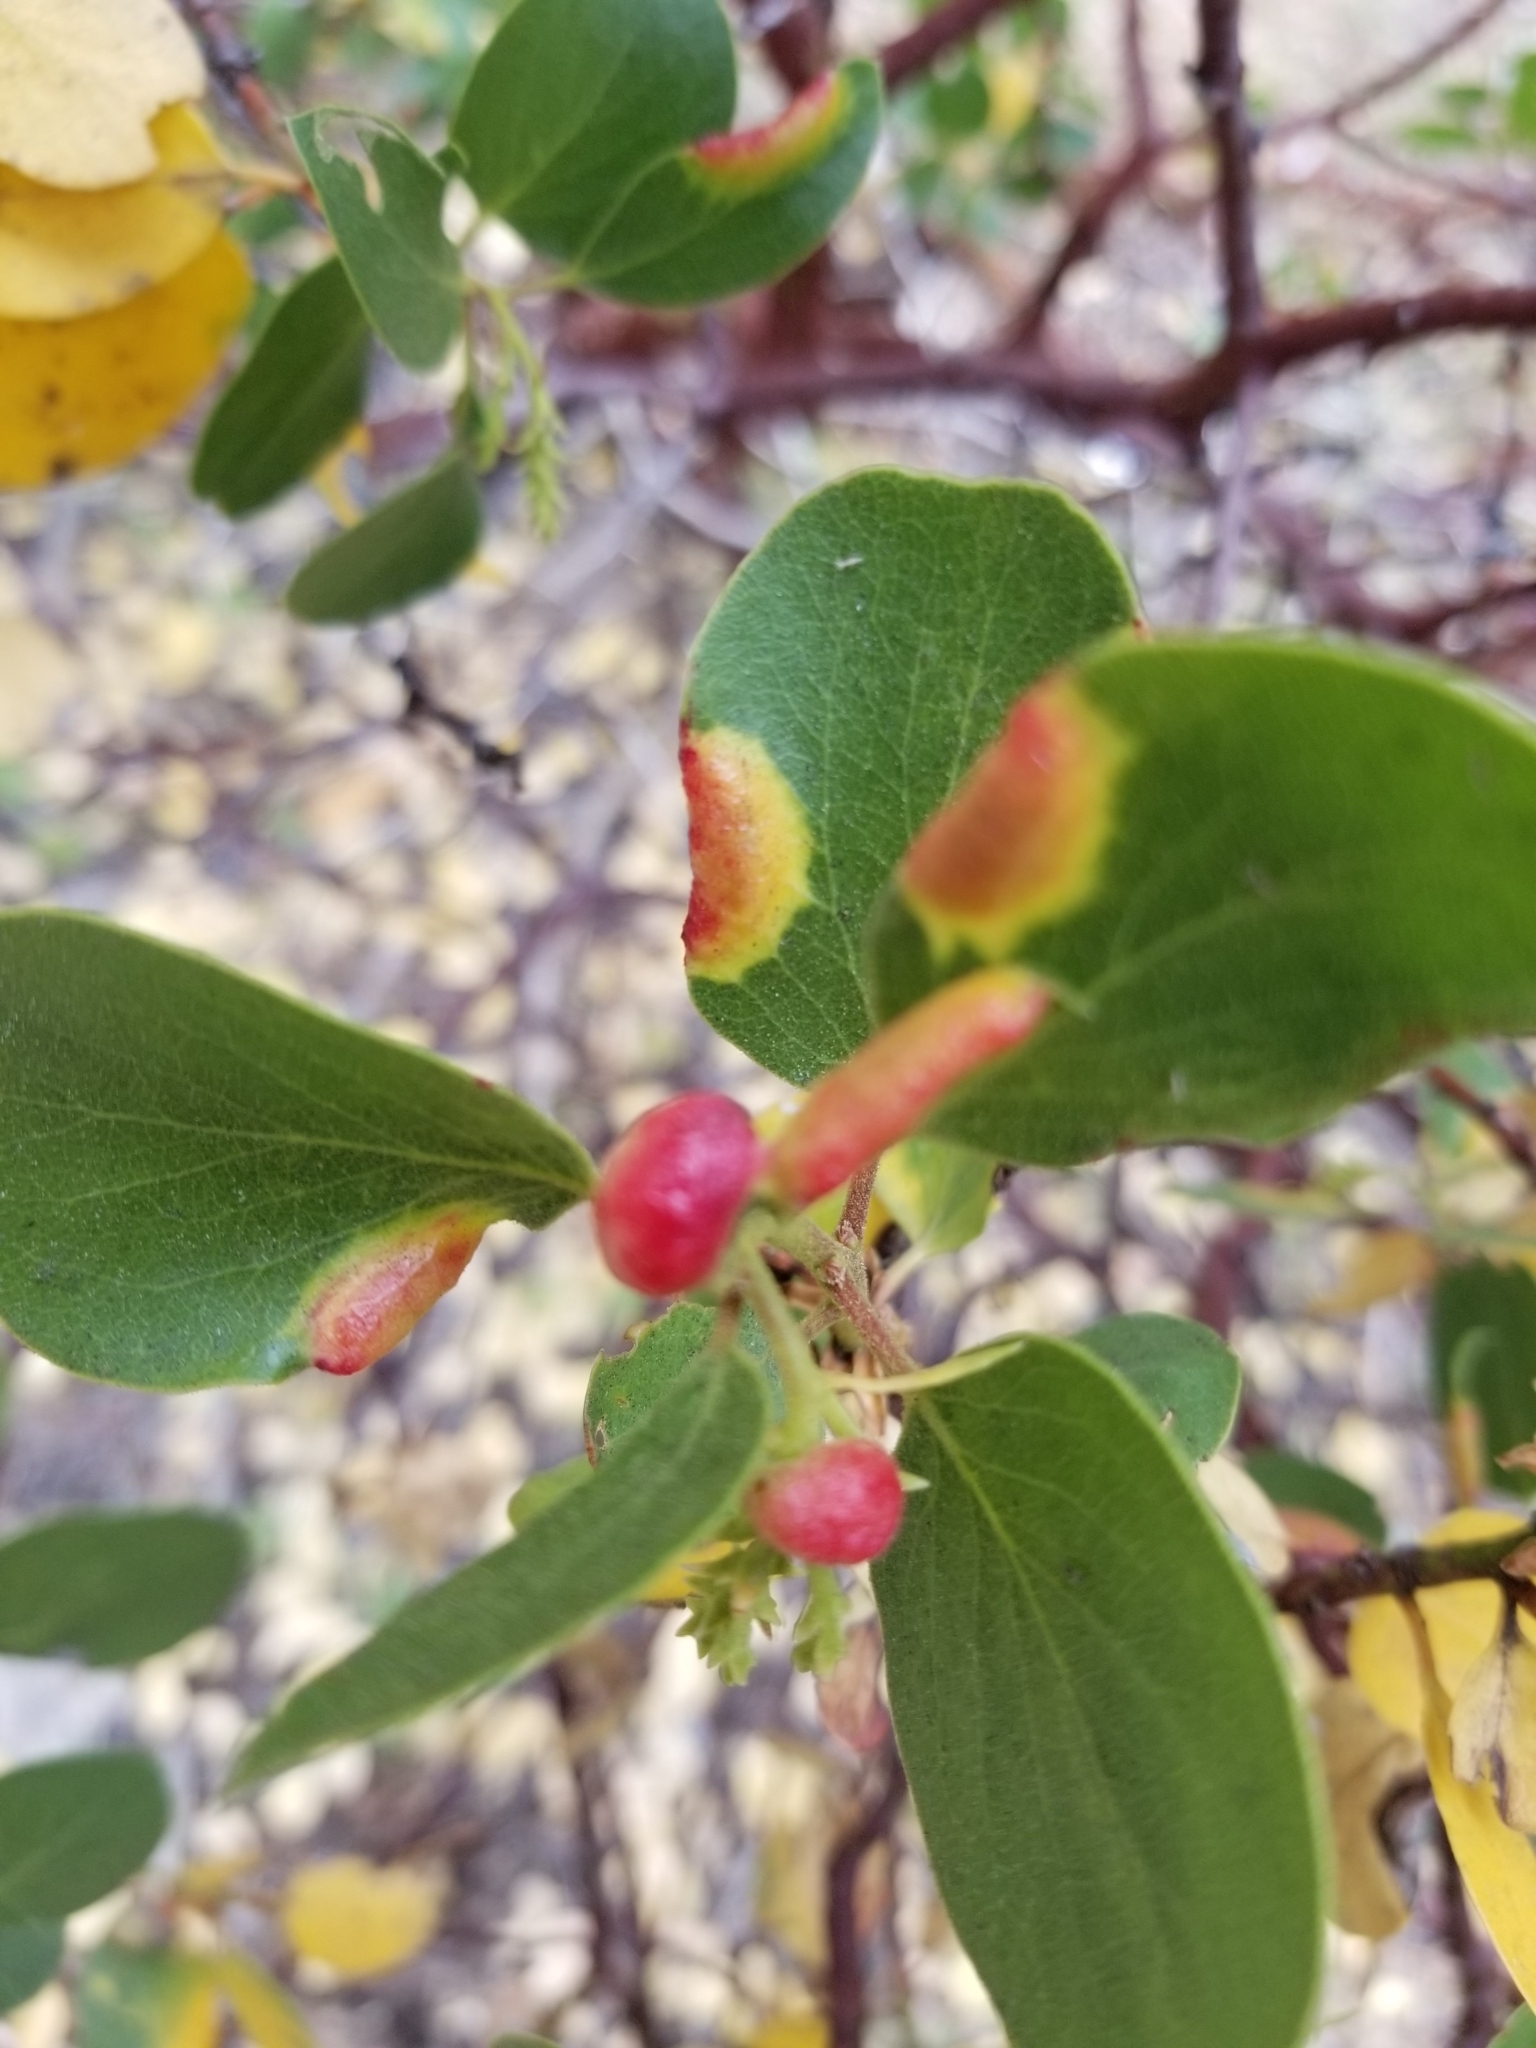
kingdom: Animalia
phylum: Arthropoda
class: Insecta
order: Hemiptera
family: Aphididae
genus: Tamalia
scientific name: Tamalia coweni
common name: Manzanita leafgall aphid
